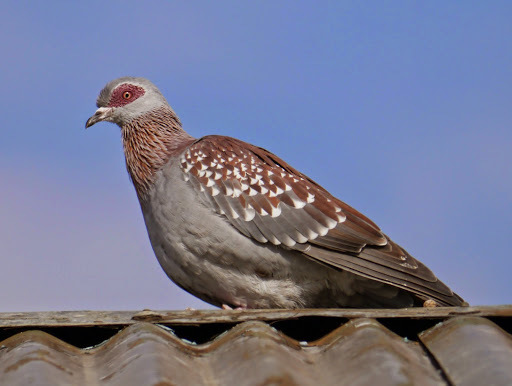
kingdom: Animalia
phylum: Chordata
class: Aves
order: Columbiformes
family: Columbidae
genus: Columba
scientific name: Columba guinea
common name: Speckled pigeon
